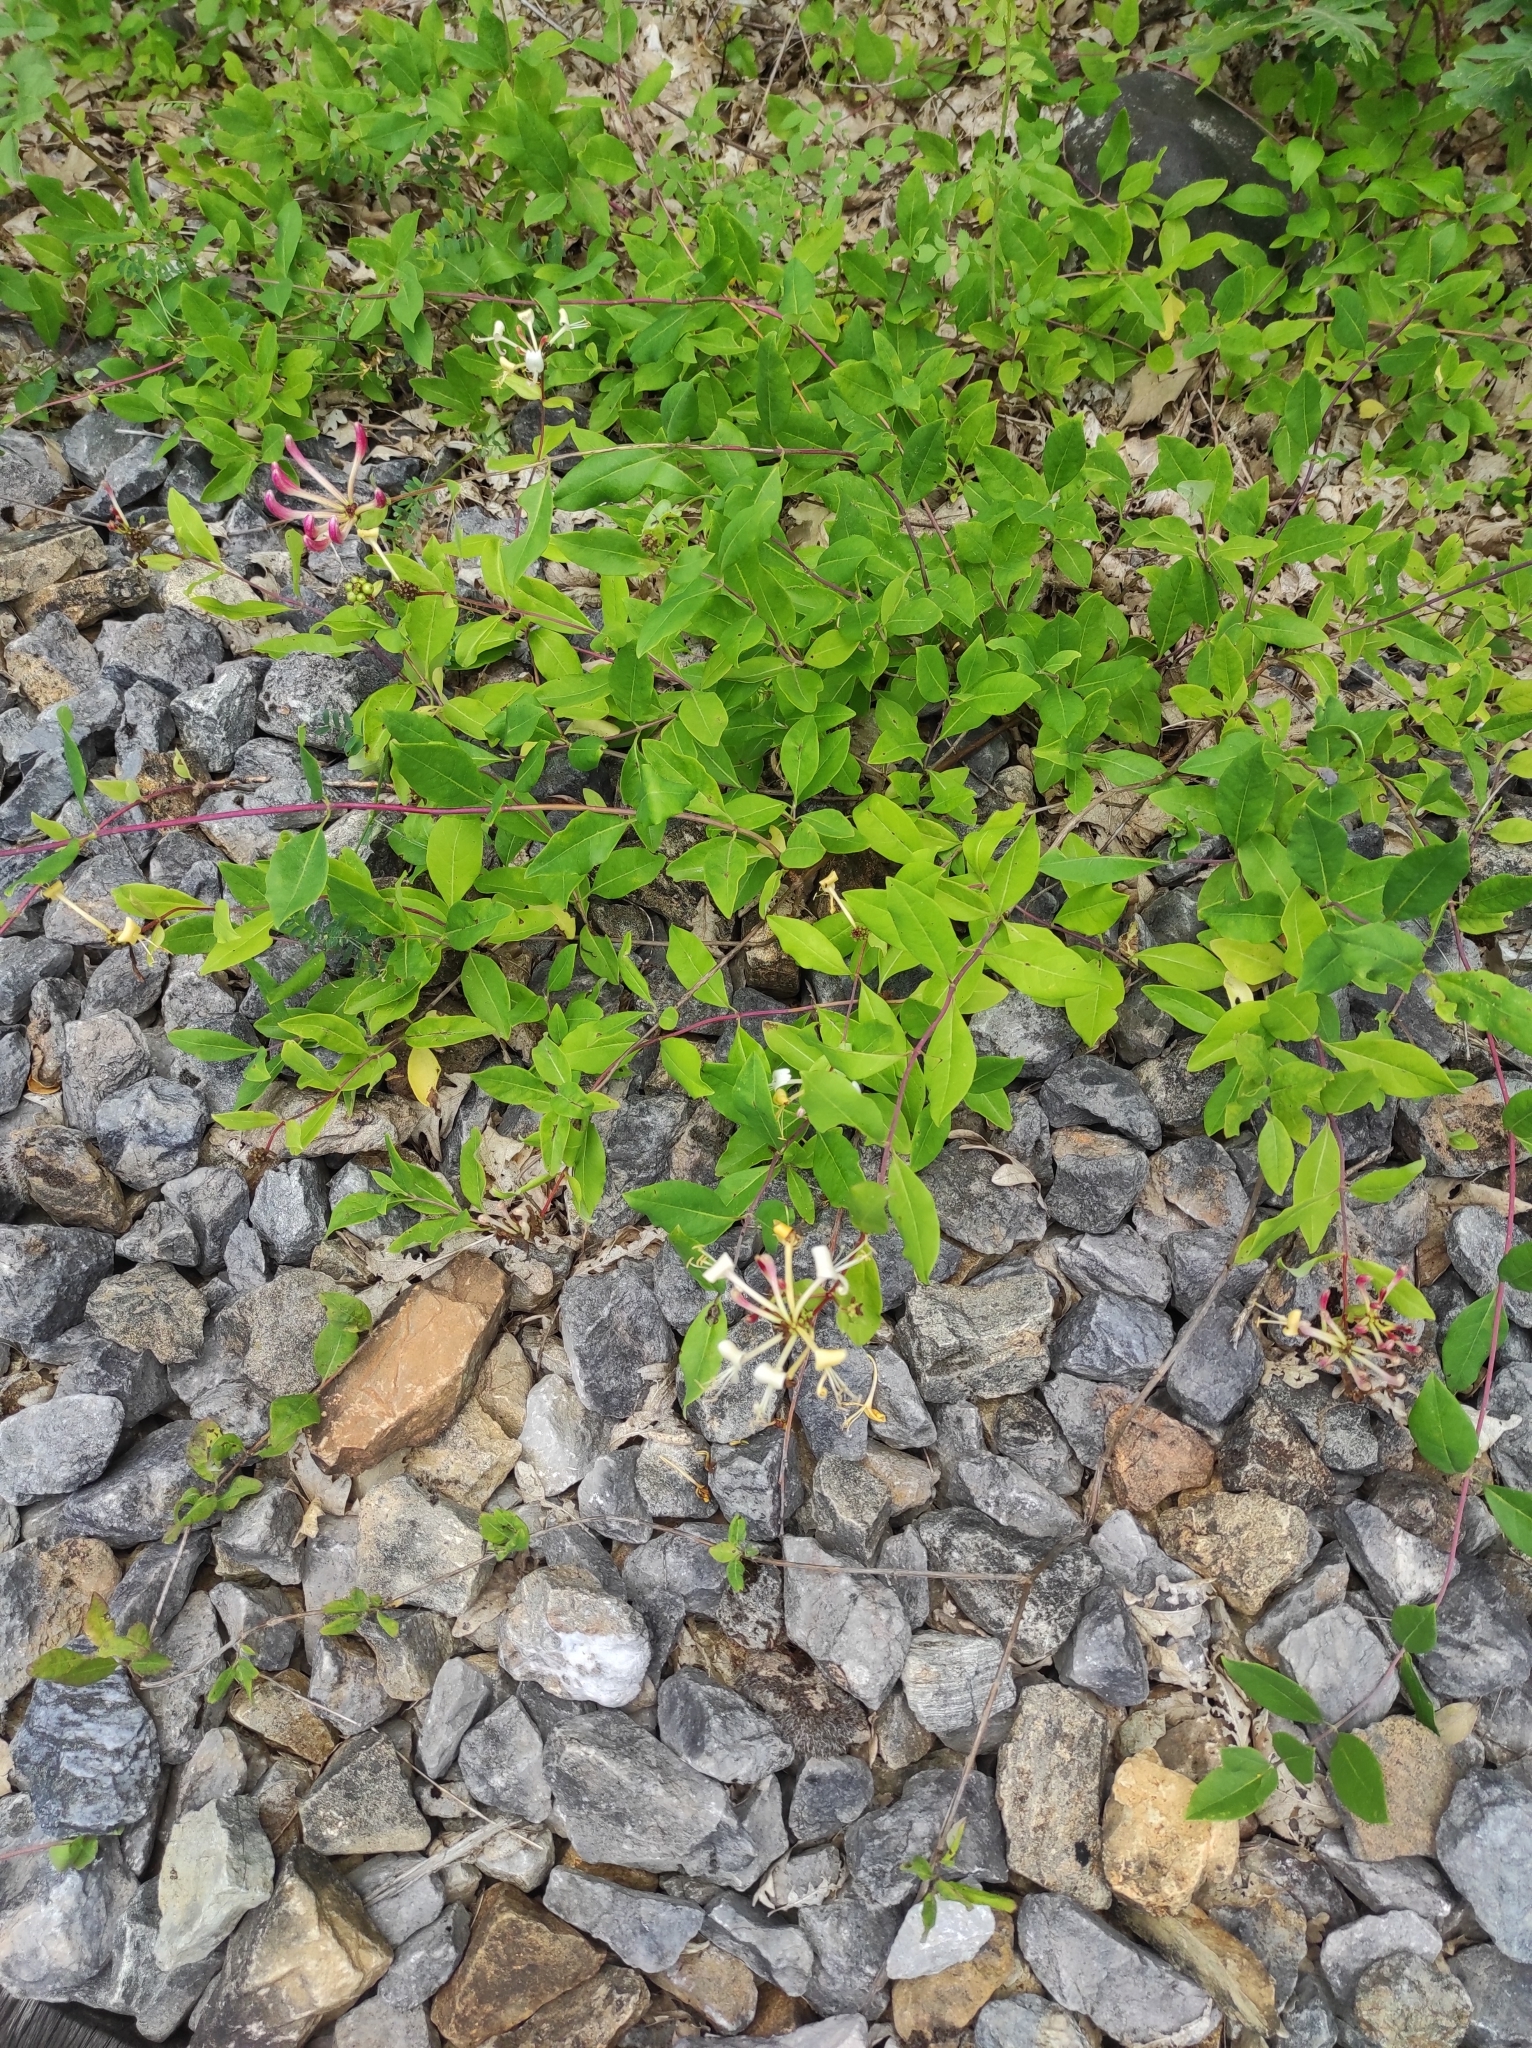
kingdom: Plantae
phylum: Tracheophyta
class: Magnoliopsida
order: Dipsacales
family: Caprifoliaceae
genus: Lonicera
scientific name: Lonicera periclymenum
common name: European honeysuckle
